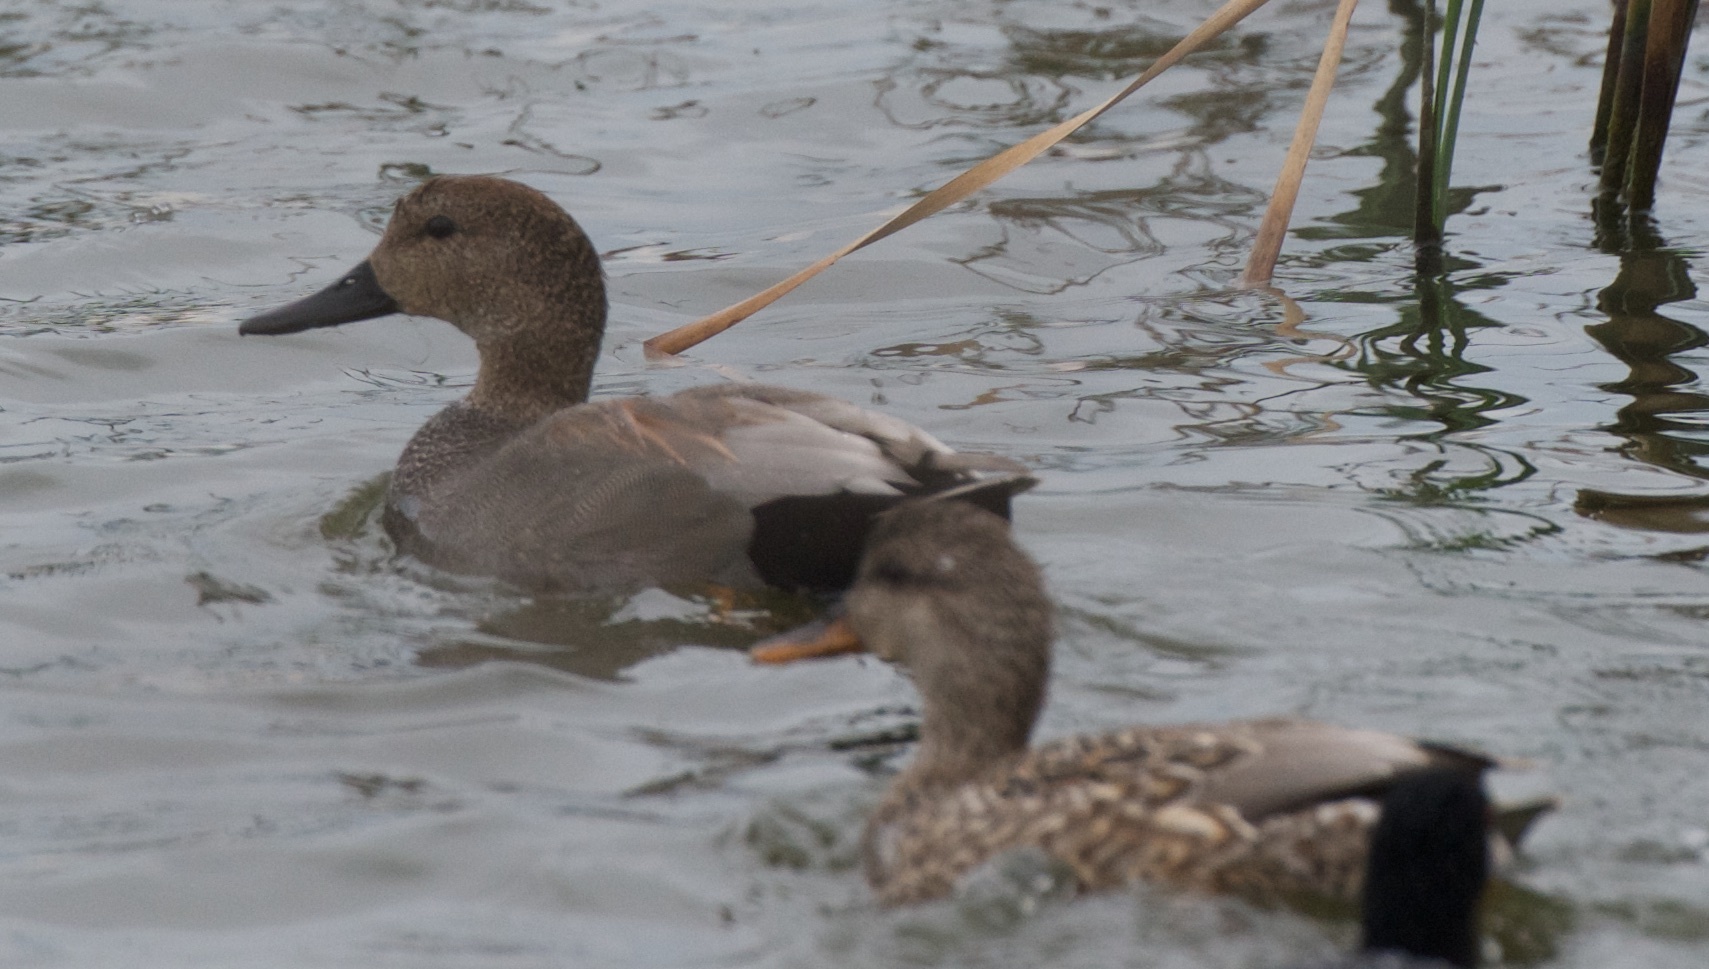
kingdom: Animalia
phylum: Chordata
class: Aves
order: Anseriformes
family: Anatidae
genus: Mareca
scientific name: Mareca strepera
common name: Gadwall
